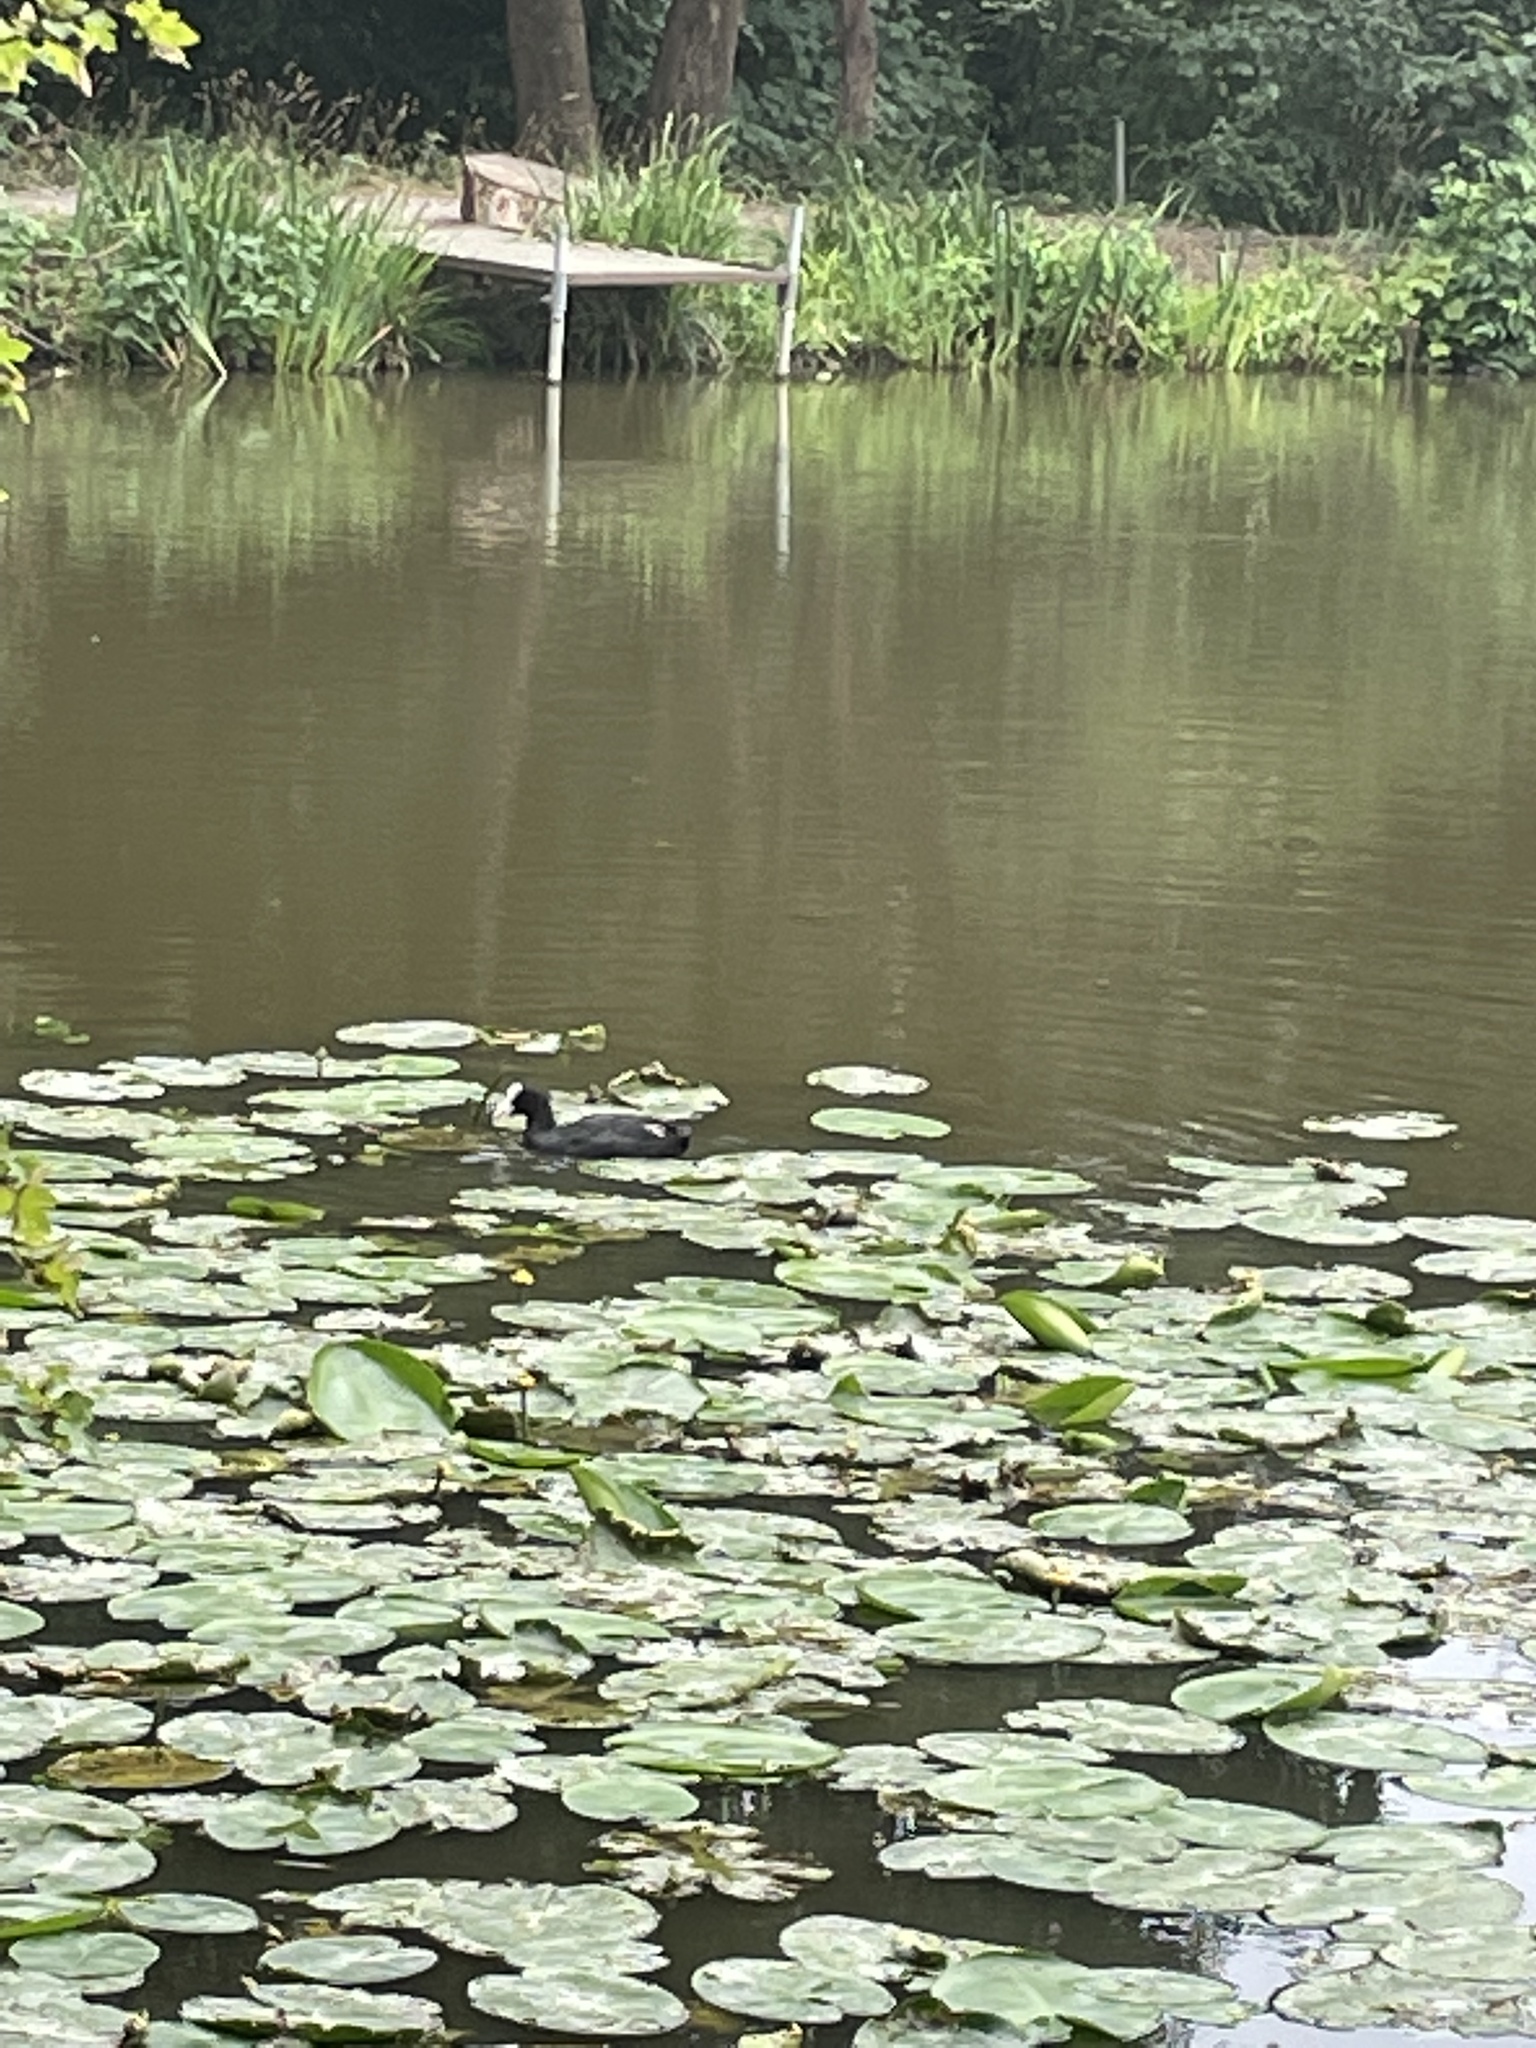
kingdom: Animalia
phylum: Chordata
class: Aves
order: Gruiformes
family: Rallidae
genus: Fulica
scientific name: Fulica atra
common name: Eurasian coot
